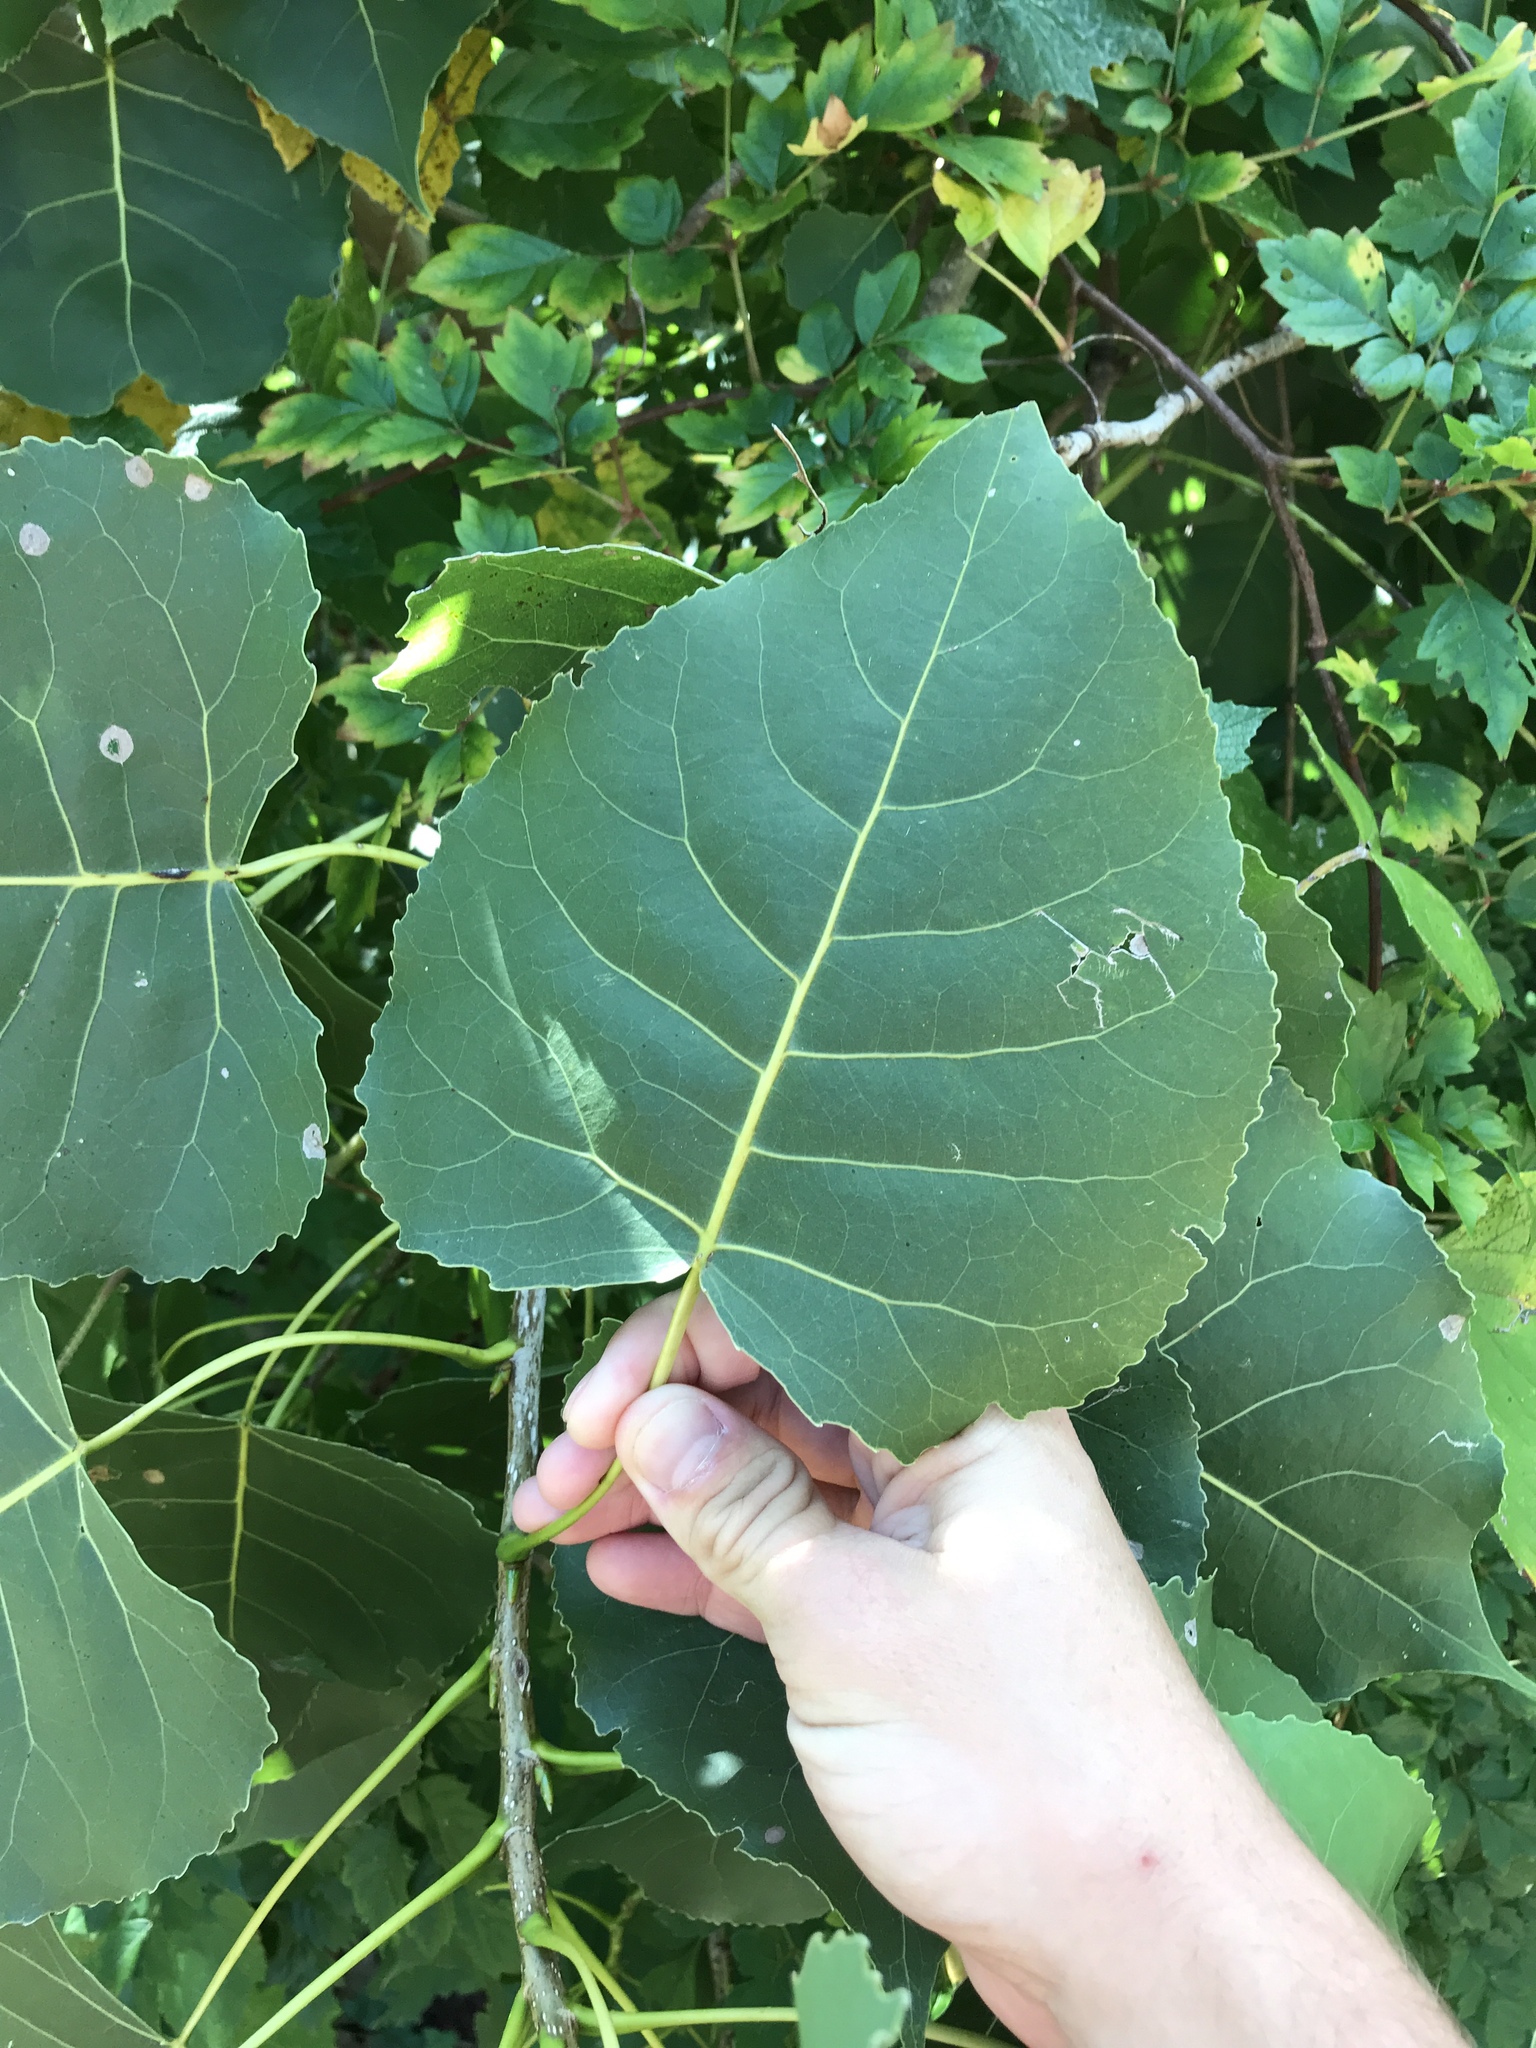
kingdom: Plantae
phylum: Tracheophyta
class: Magnoliopsida
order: Malpighiales
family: Salicaceae
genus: Populus
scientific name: Populus deltoides
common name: Eastern cottonwood
